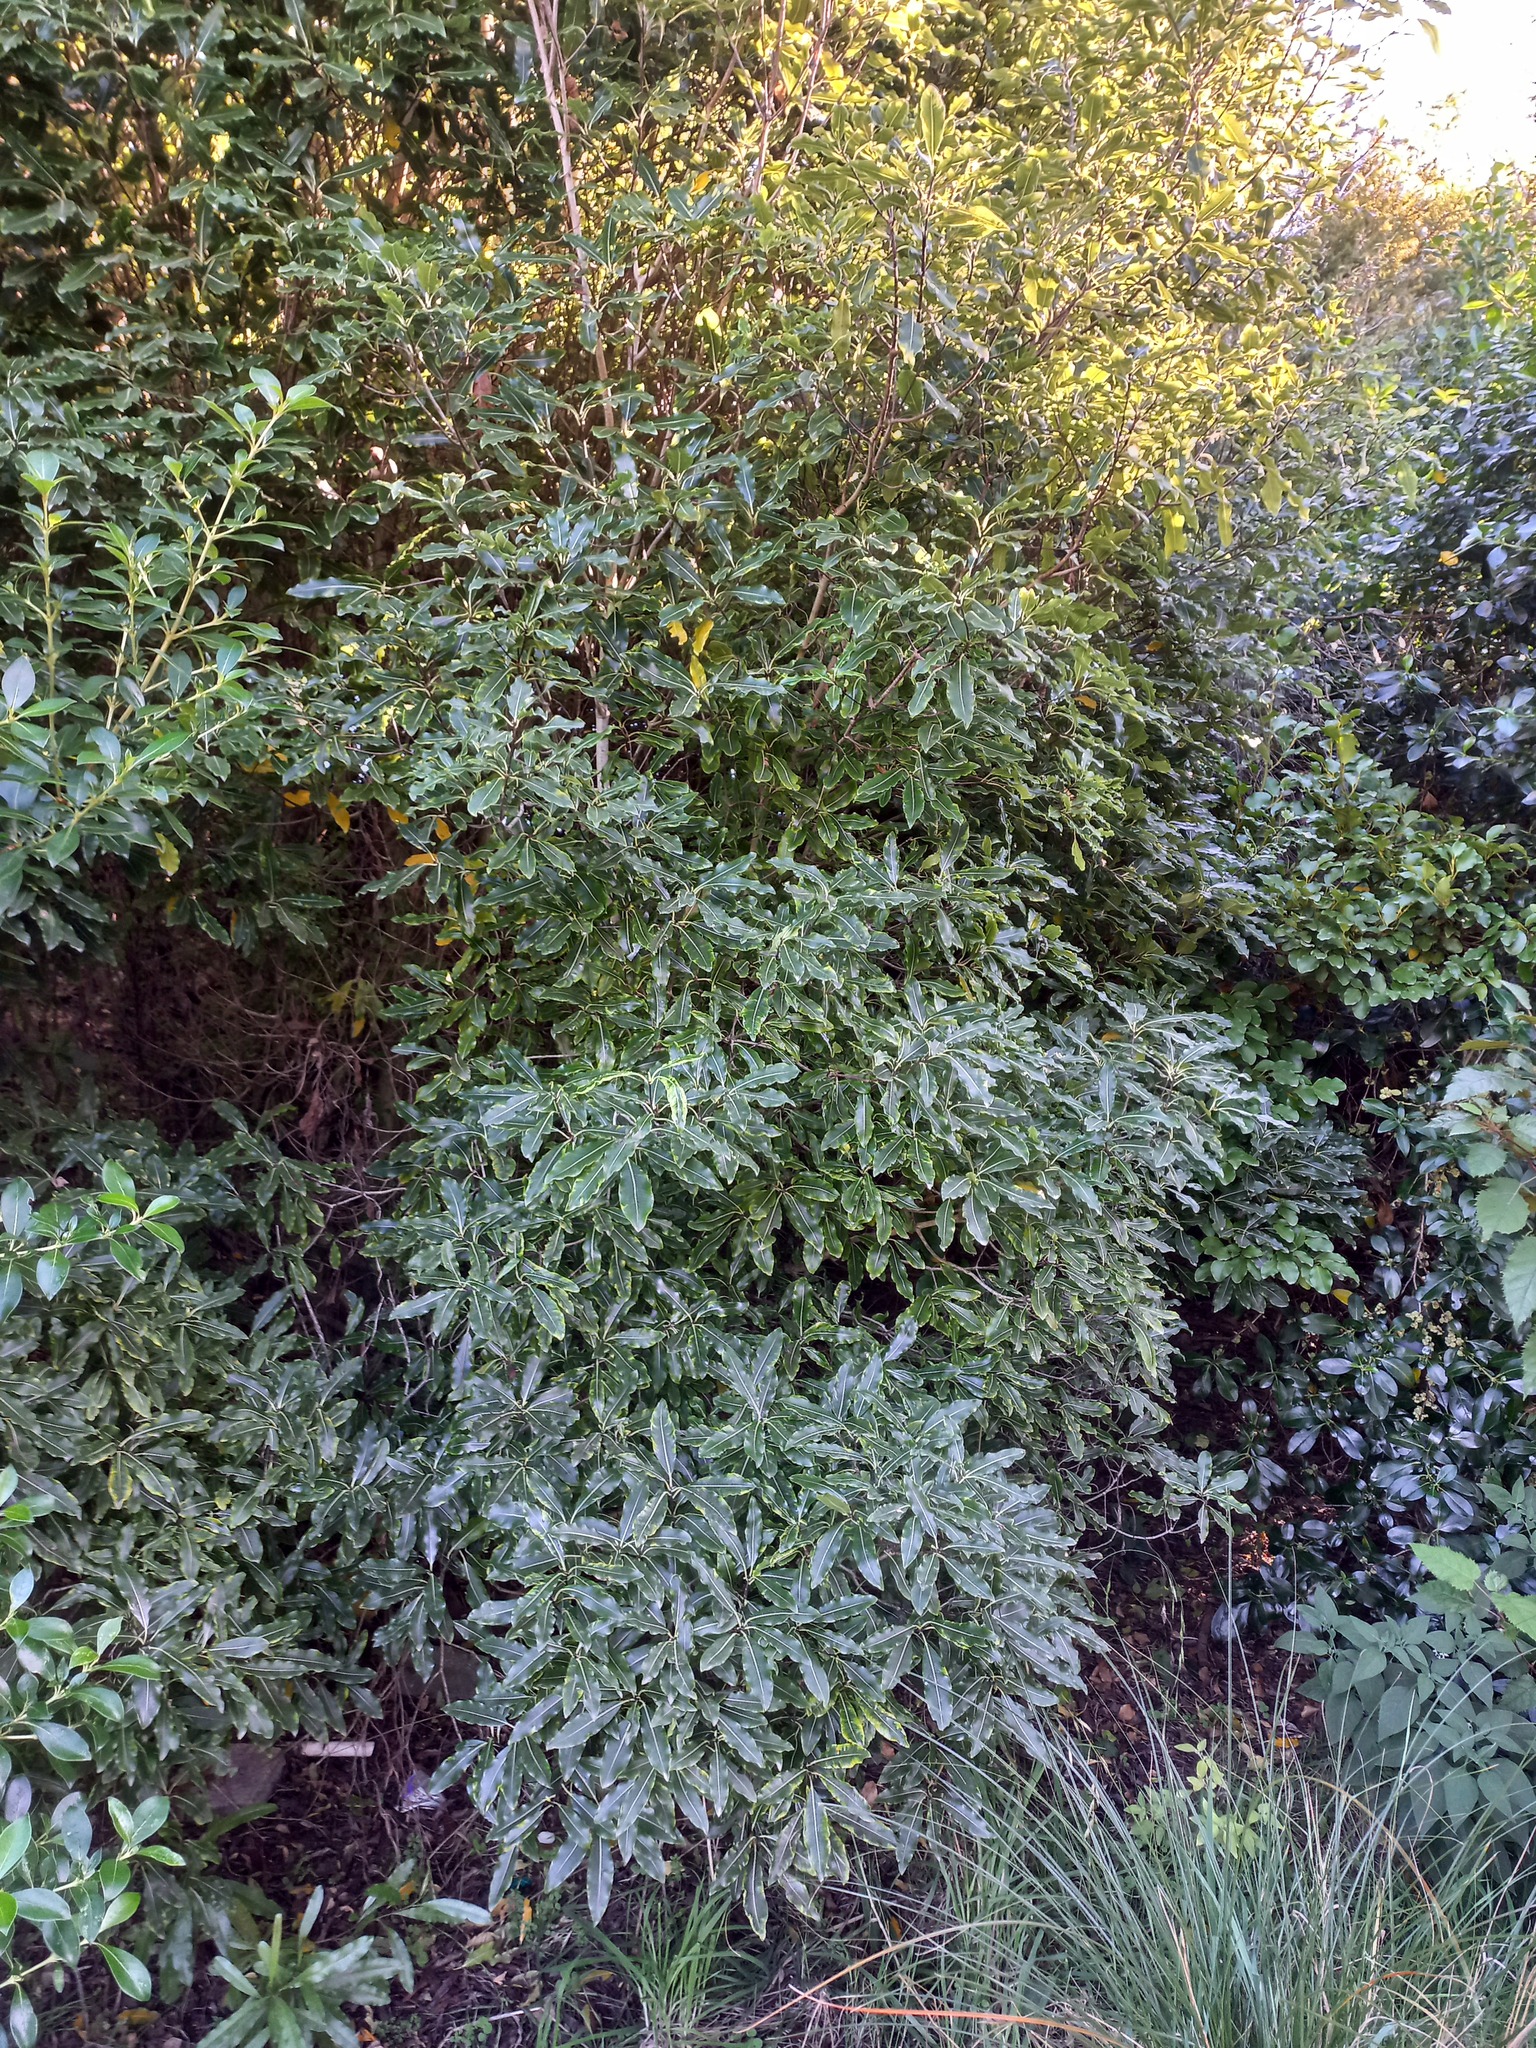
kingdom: Plantae
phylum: Tracheophyta
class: Magnoliopsida
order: Apiales
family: Pittosporaceae
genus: Pittosporum
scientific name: Pittosporum eugenioides
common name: Lemonwood
